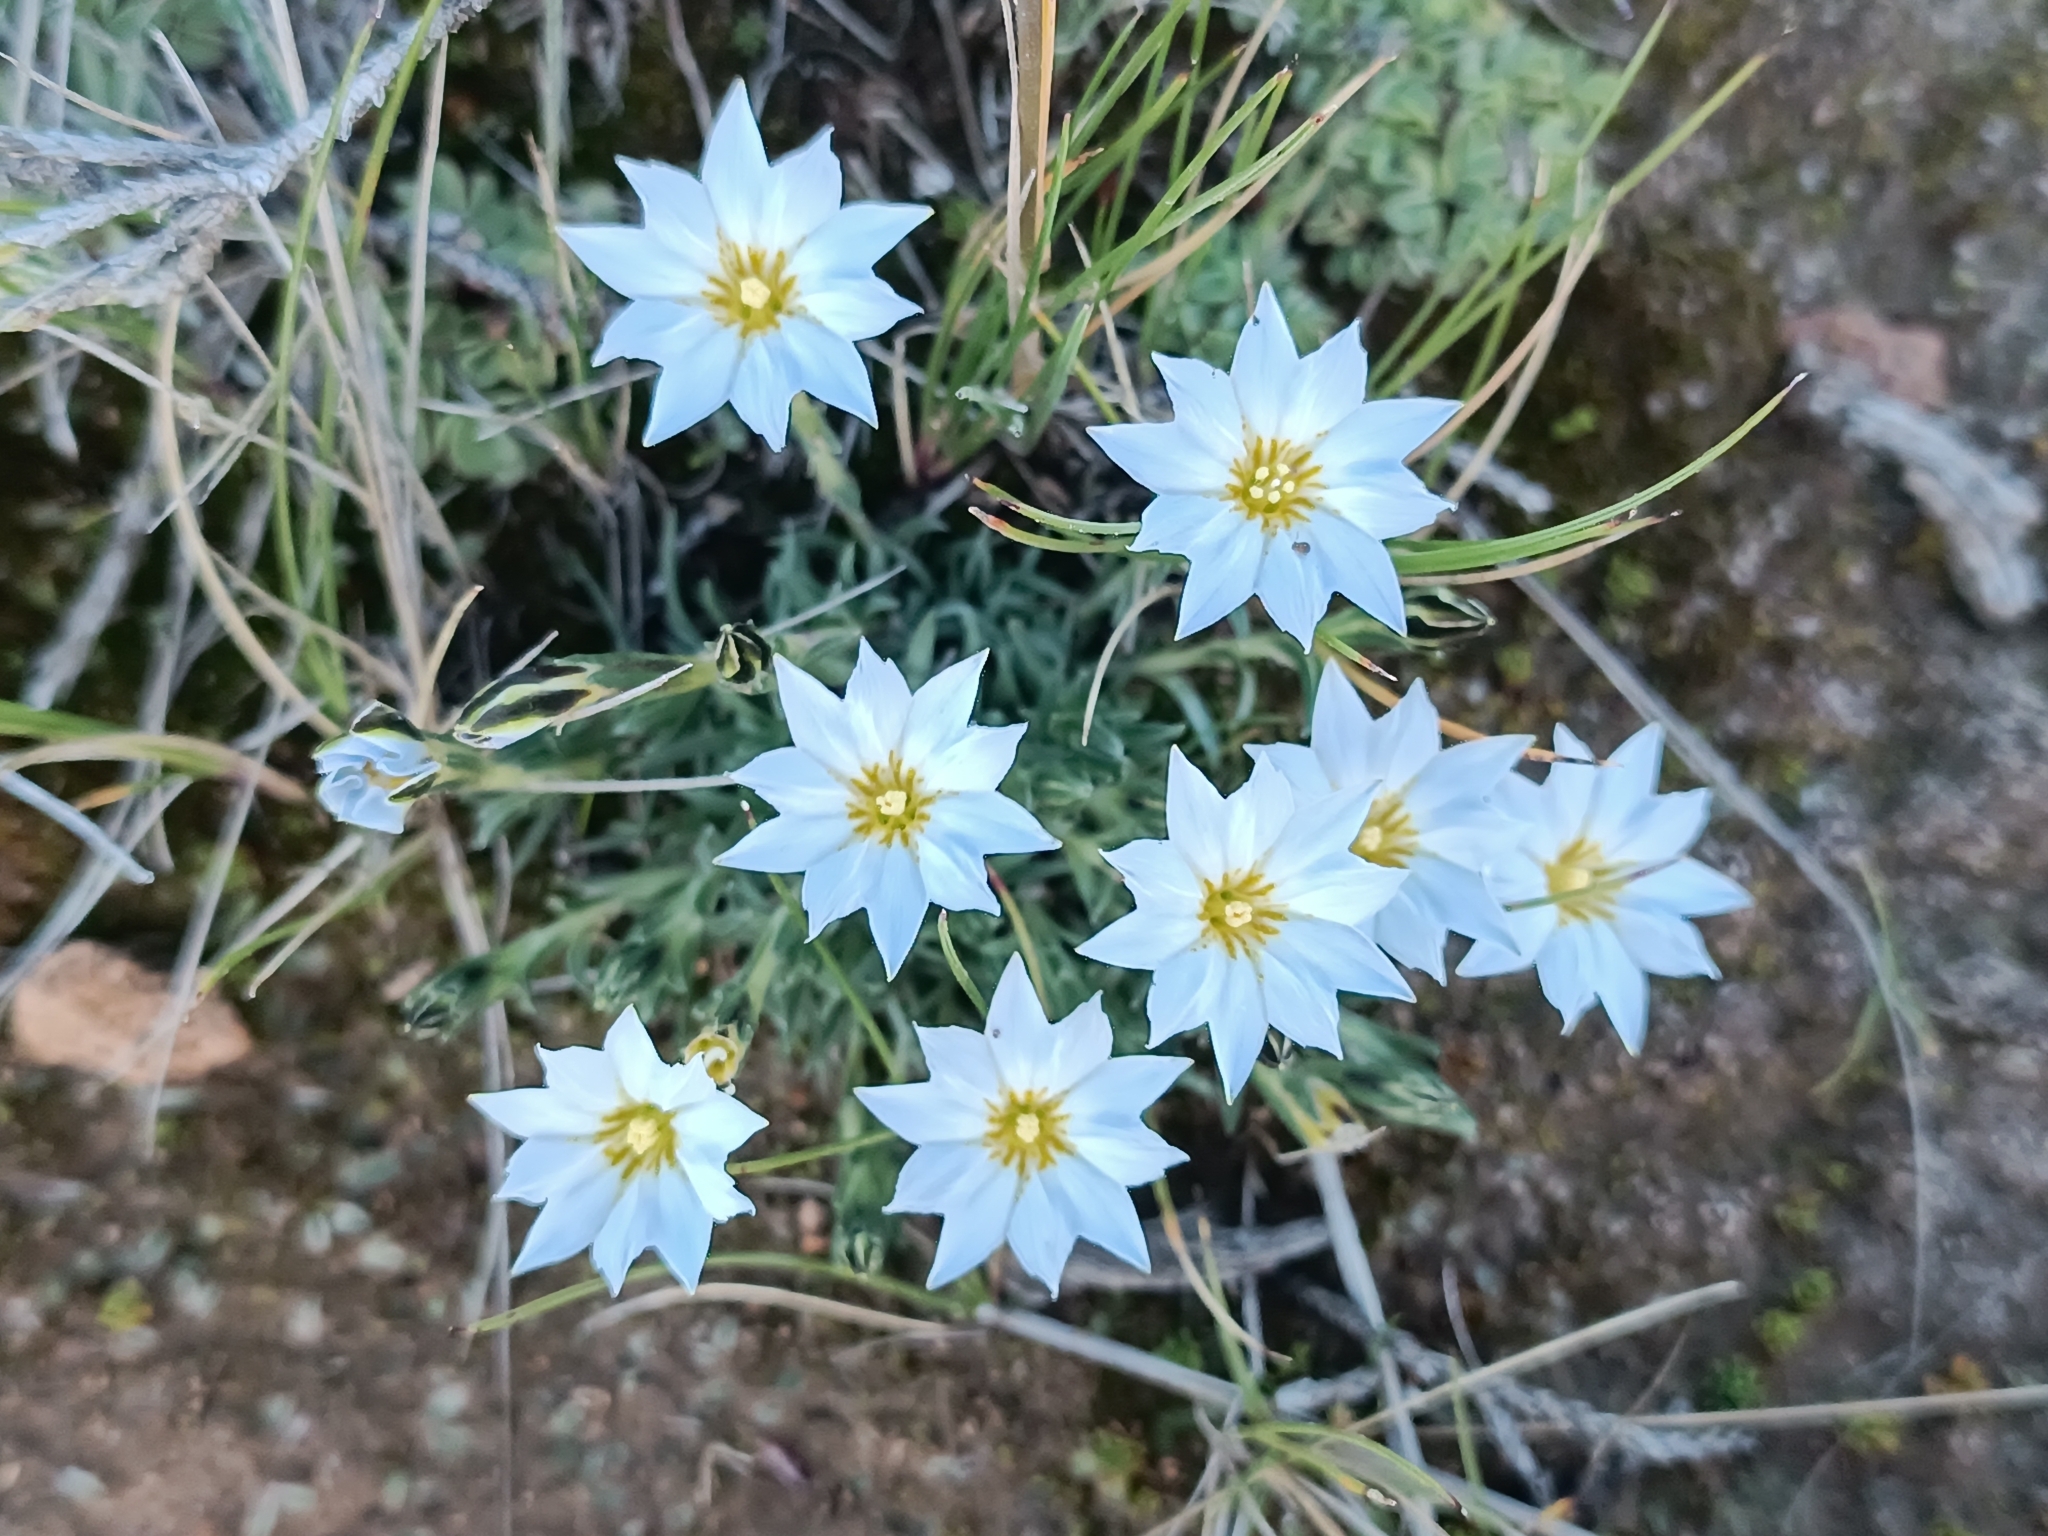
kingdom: Plantae
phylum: Tracheophyta
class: Magnoliopsida
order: Gentianales
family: Gentianaceae
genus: Gentiana
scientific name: Gentiana sedifolia
